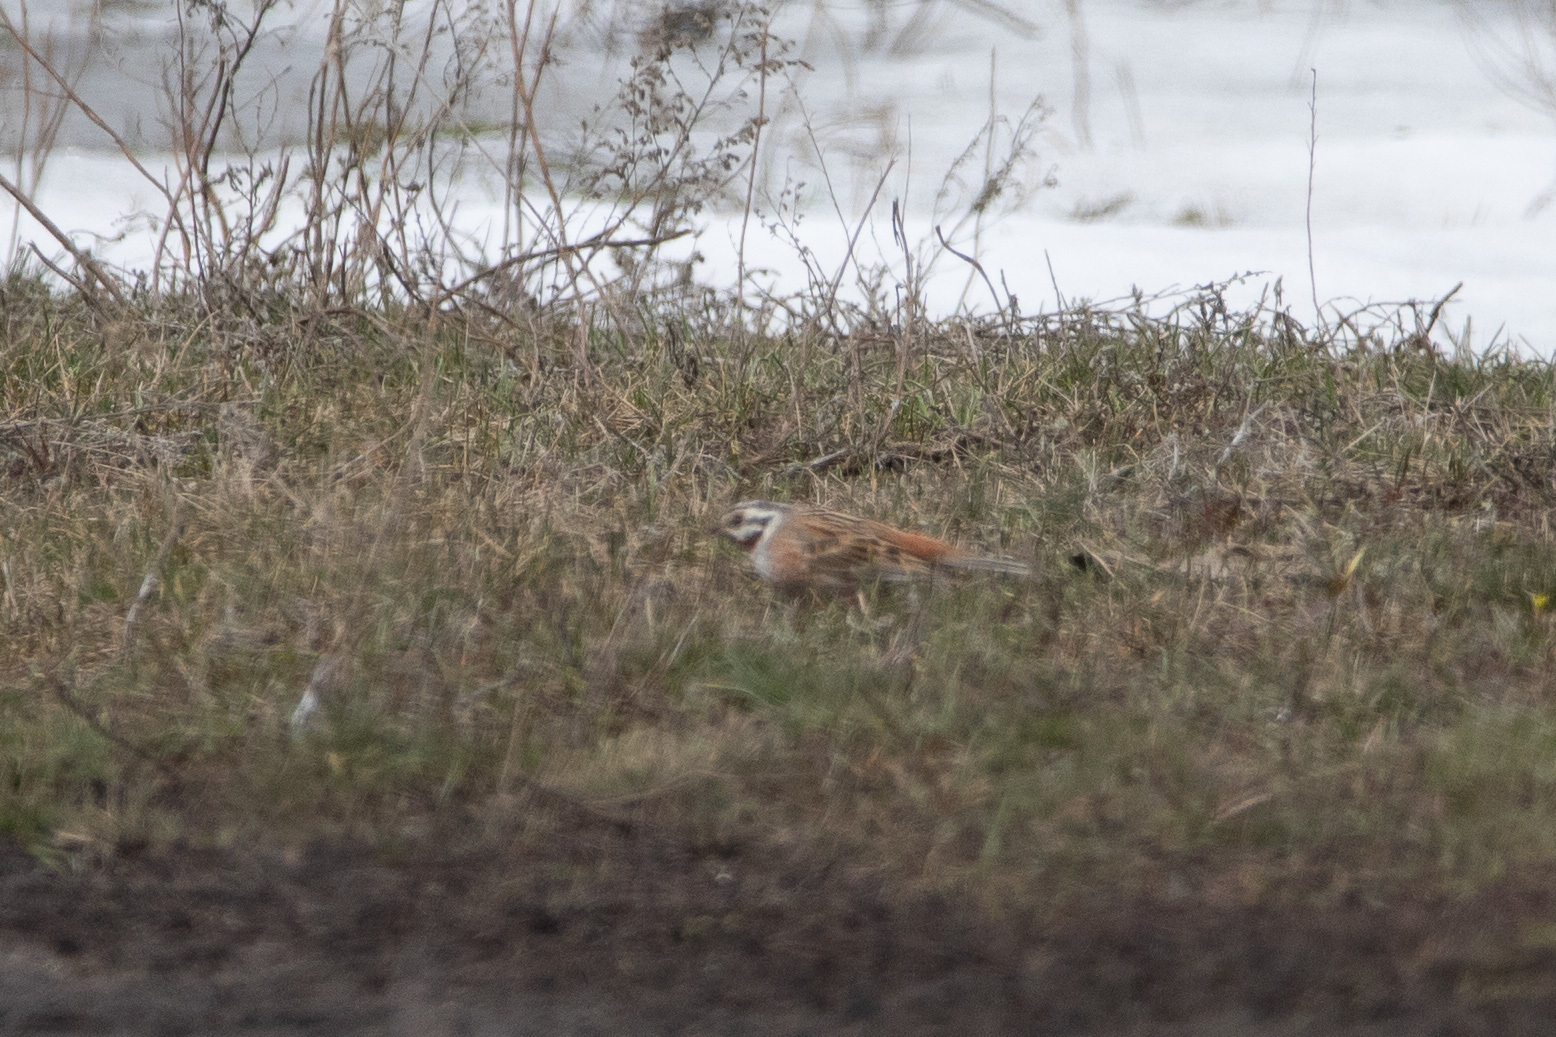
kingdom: Animalia
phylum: Chordata
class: Aves
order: Passeriformes
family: Emberizidae
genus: Emberiza
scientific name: Emberiza
